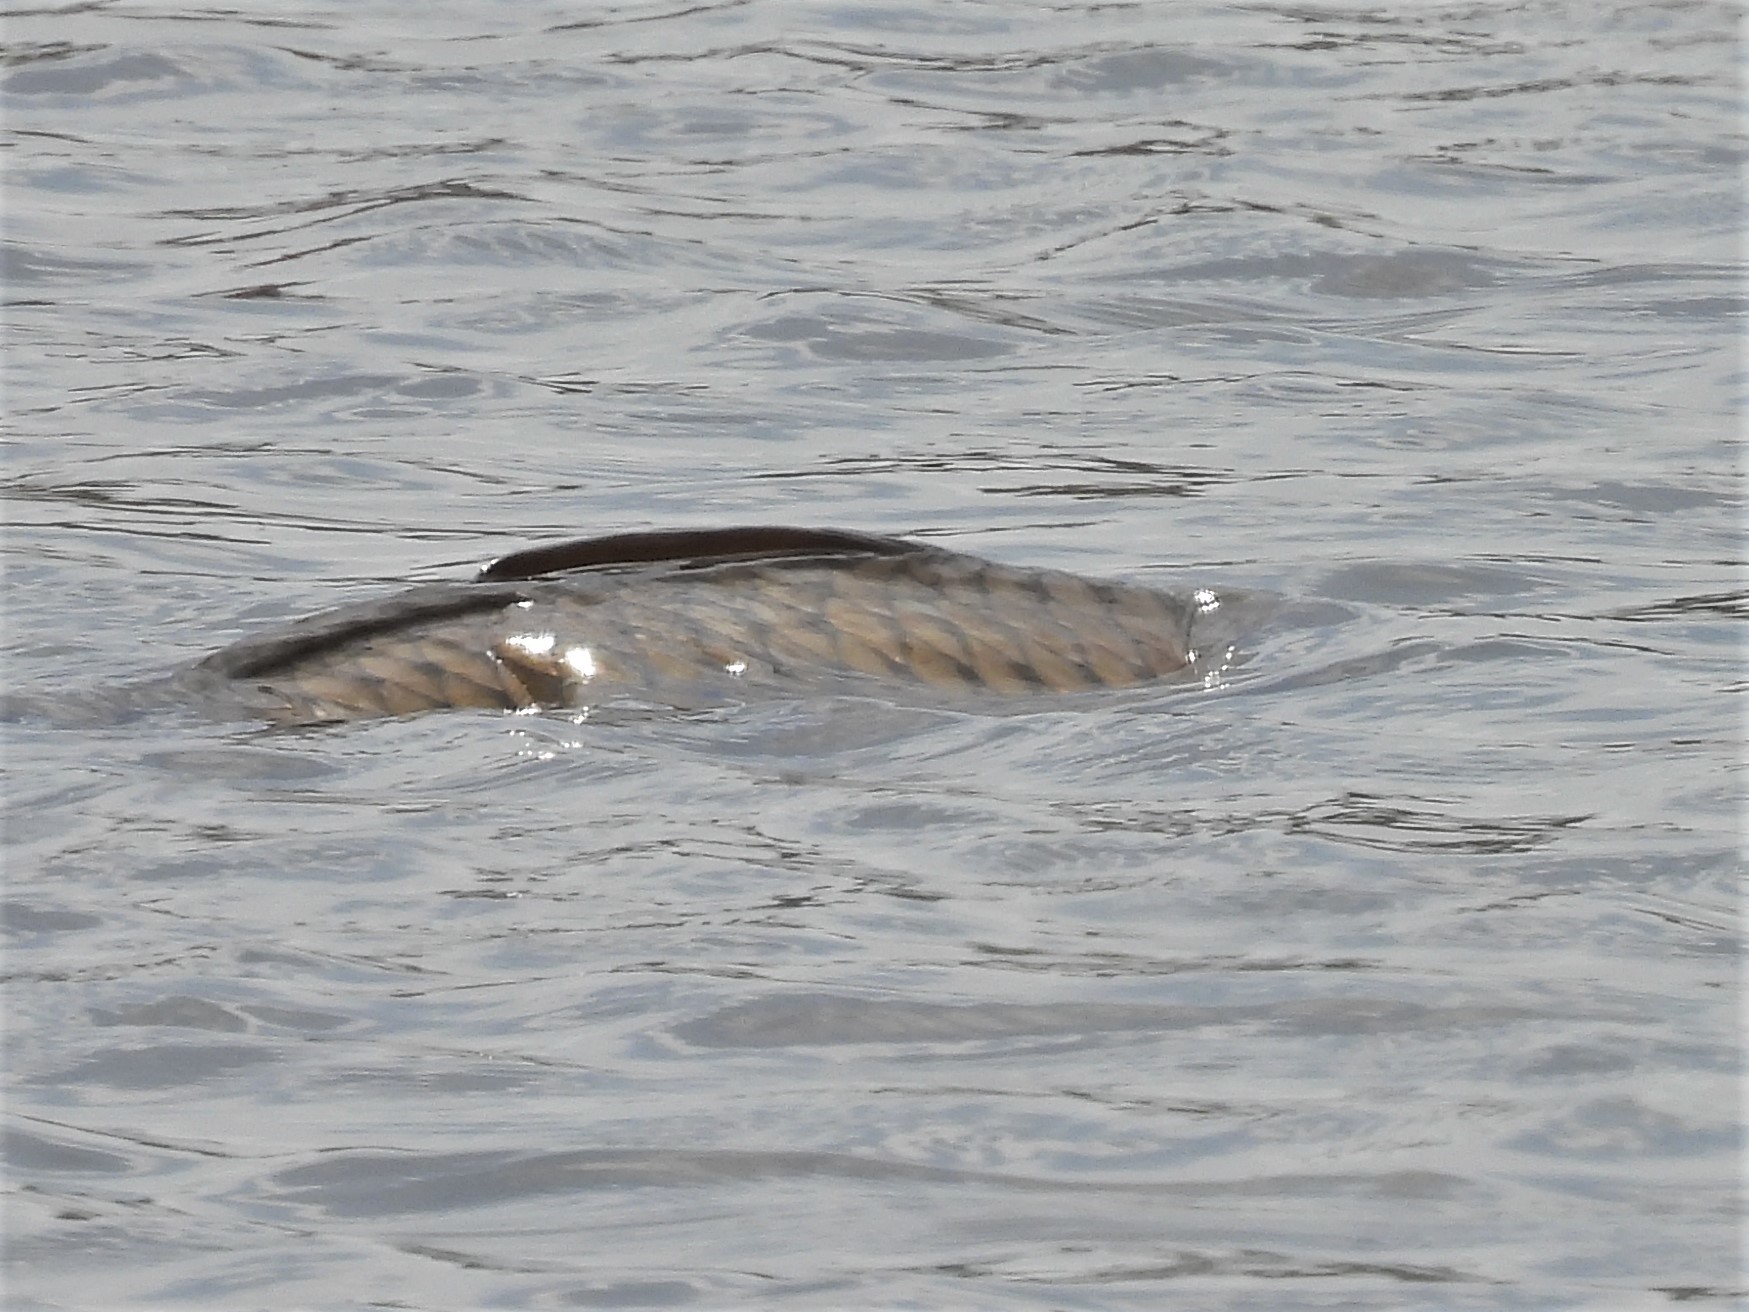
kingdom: Animalia
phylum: Chordata
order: Cypriniformes
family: Cyprinidae
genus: Cyprinus
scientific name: Cyprinus carpio
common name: Common carp
